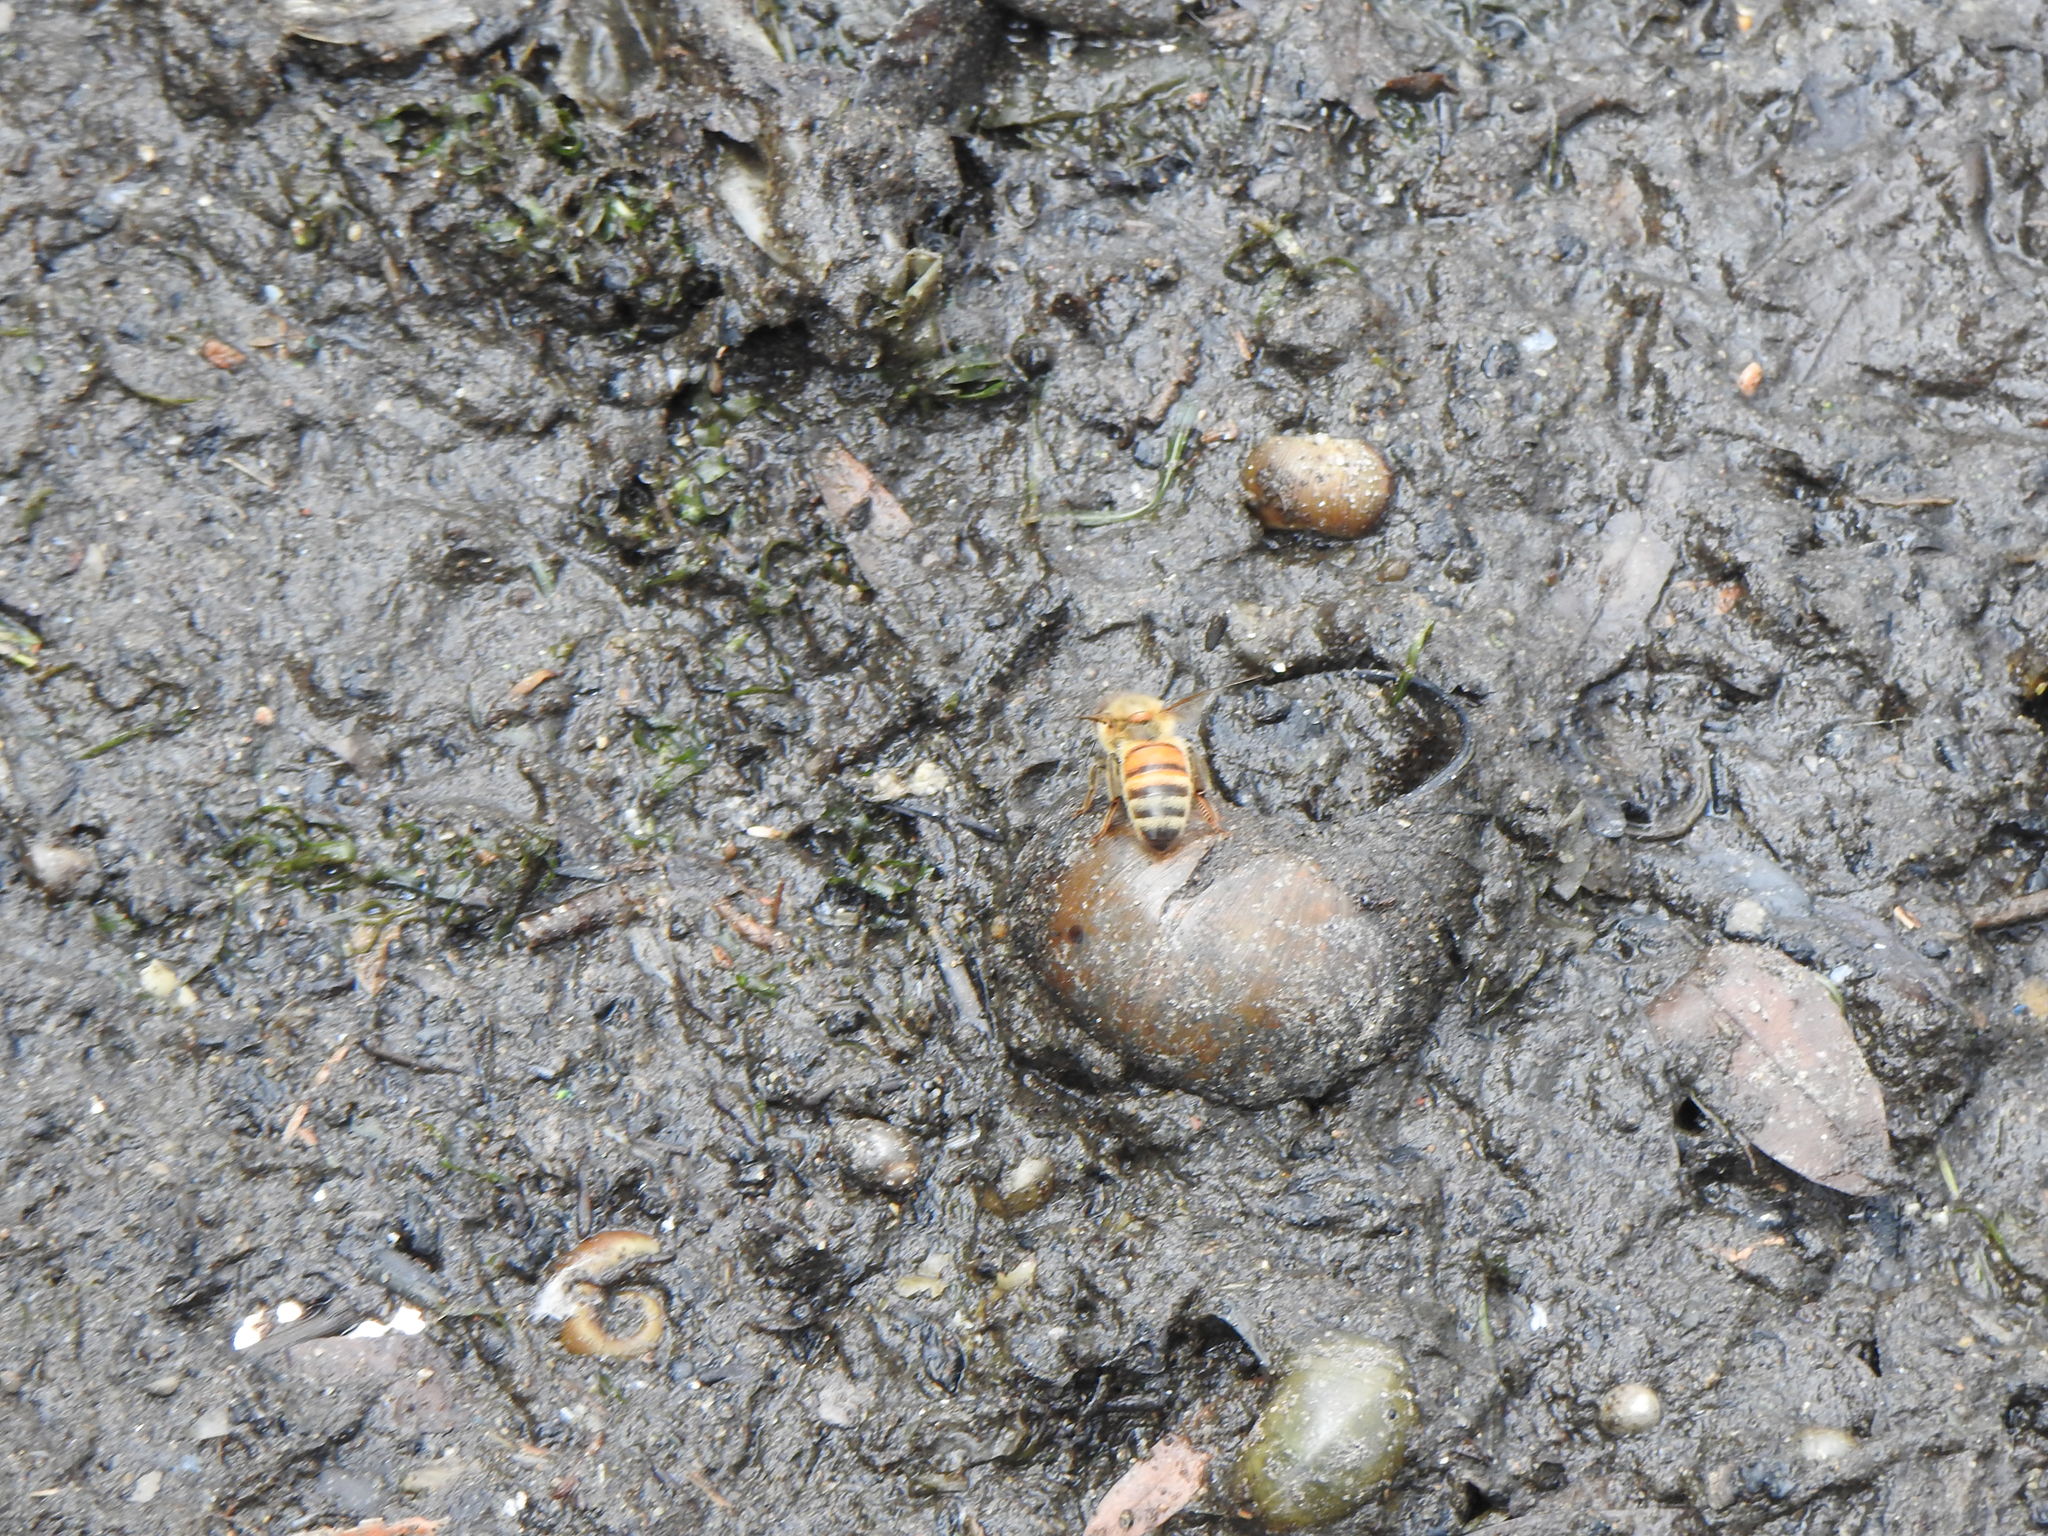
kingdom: Animalia
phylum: Arthropoda
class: Insecta
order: Hymenoptera
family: Apidae
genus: Apis
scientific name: Apis mellifera
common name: Honey bee
